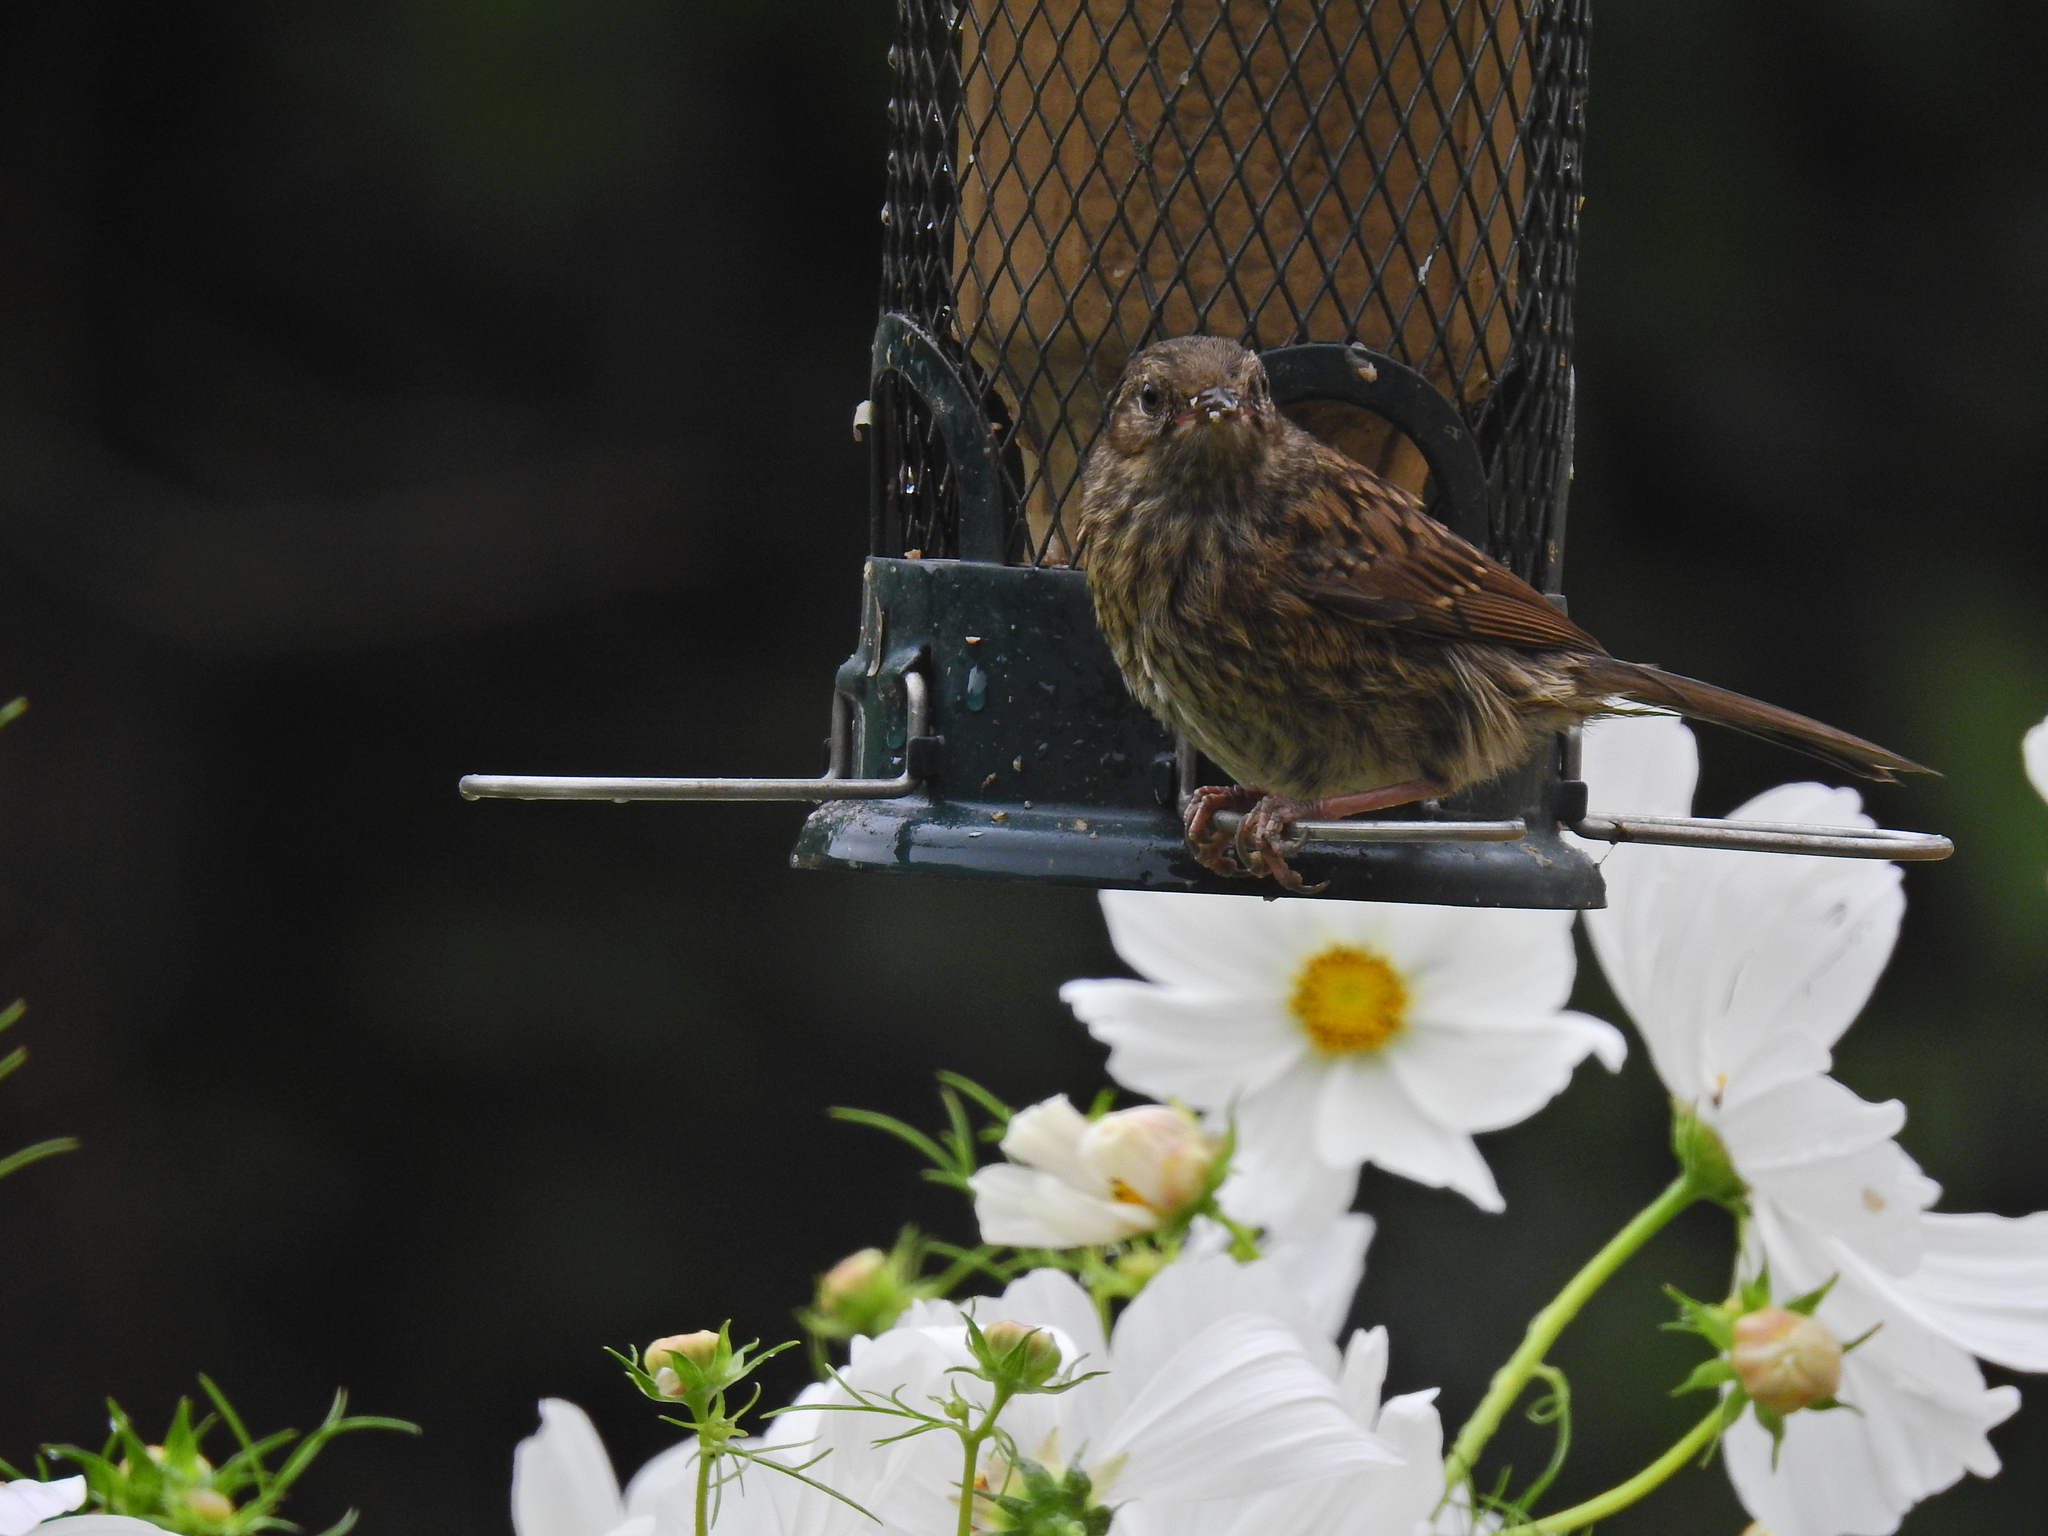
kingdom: Animalia
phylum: Chordata
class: Aves
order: Passeriformes
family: Prunellidae
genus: Prunella
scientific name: Prunella modularis
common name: Dunnock
